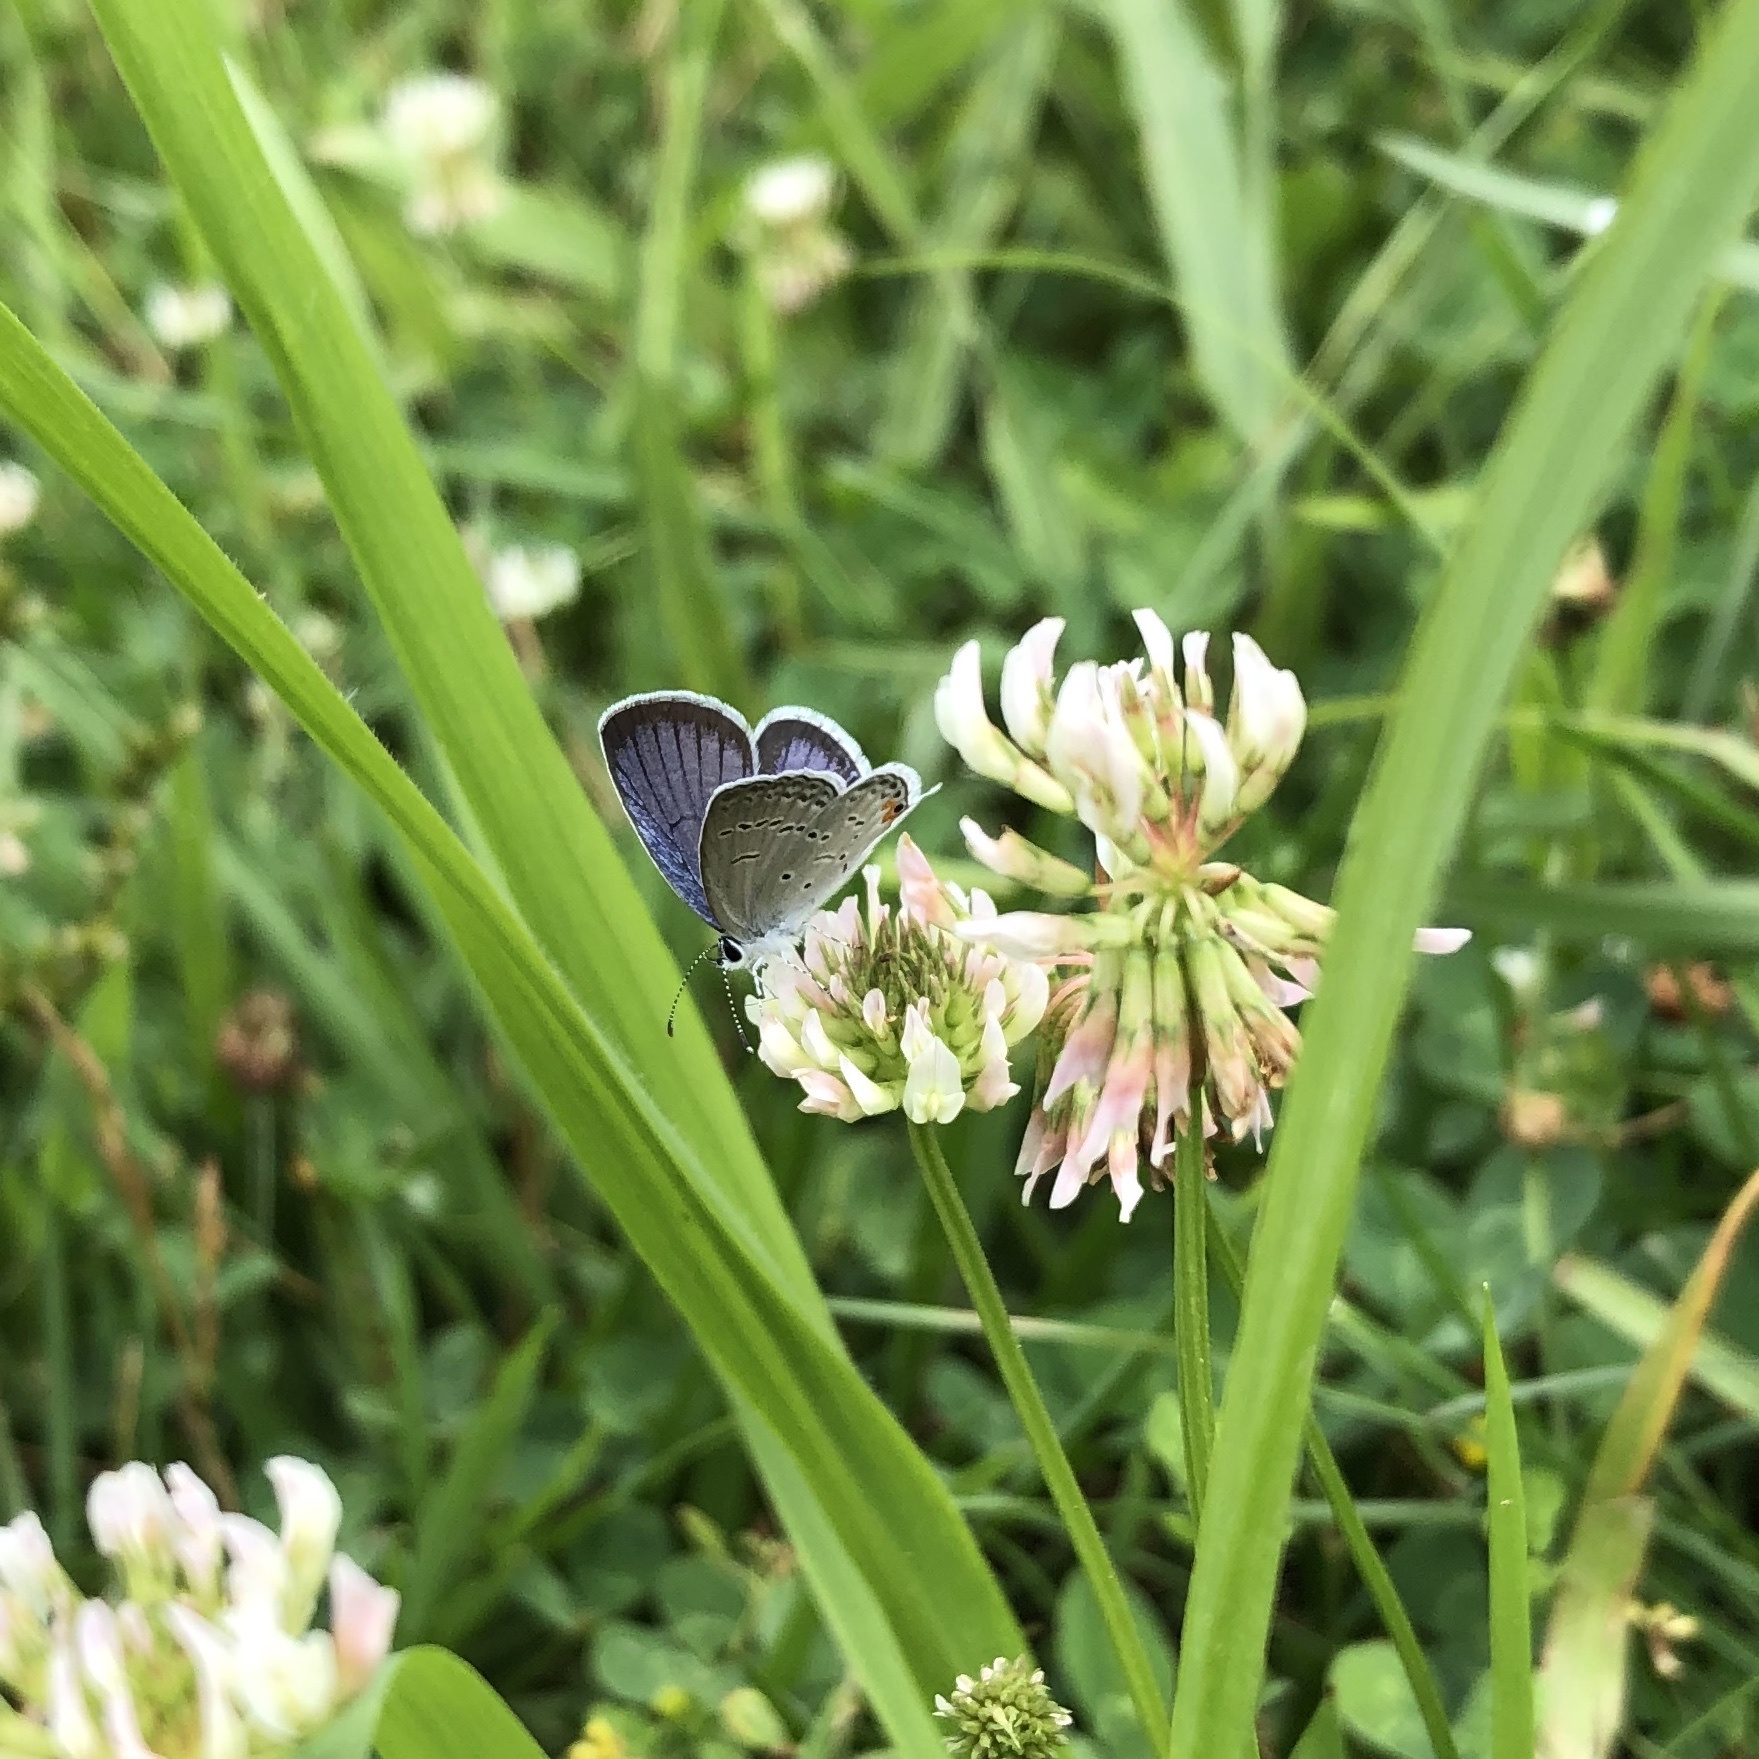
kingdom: Animalia
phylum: Arthropoda
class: Insecta
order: Lepidoptera
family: Lycaenidae
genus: Elkalyce
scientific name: Elkalyce comyntas
